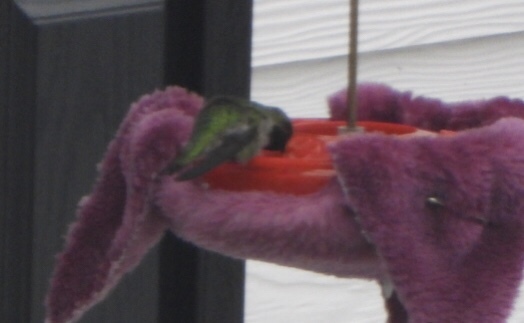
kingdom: Animalia
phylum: Chordata
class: Aves
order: Apodiformes
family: Trochilidae
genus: Calypte
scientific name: Calypte anna
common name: Anna's hummingbird
